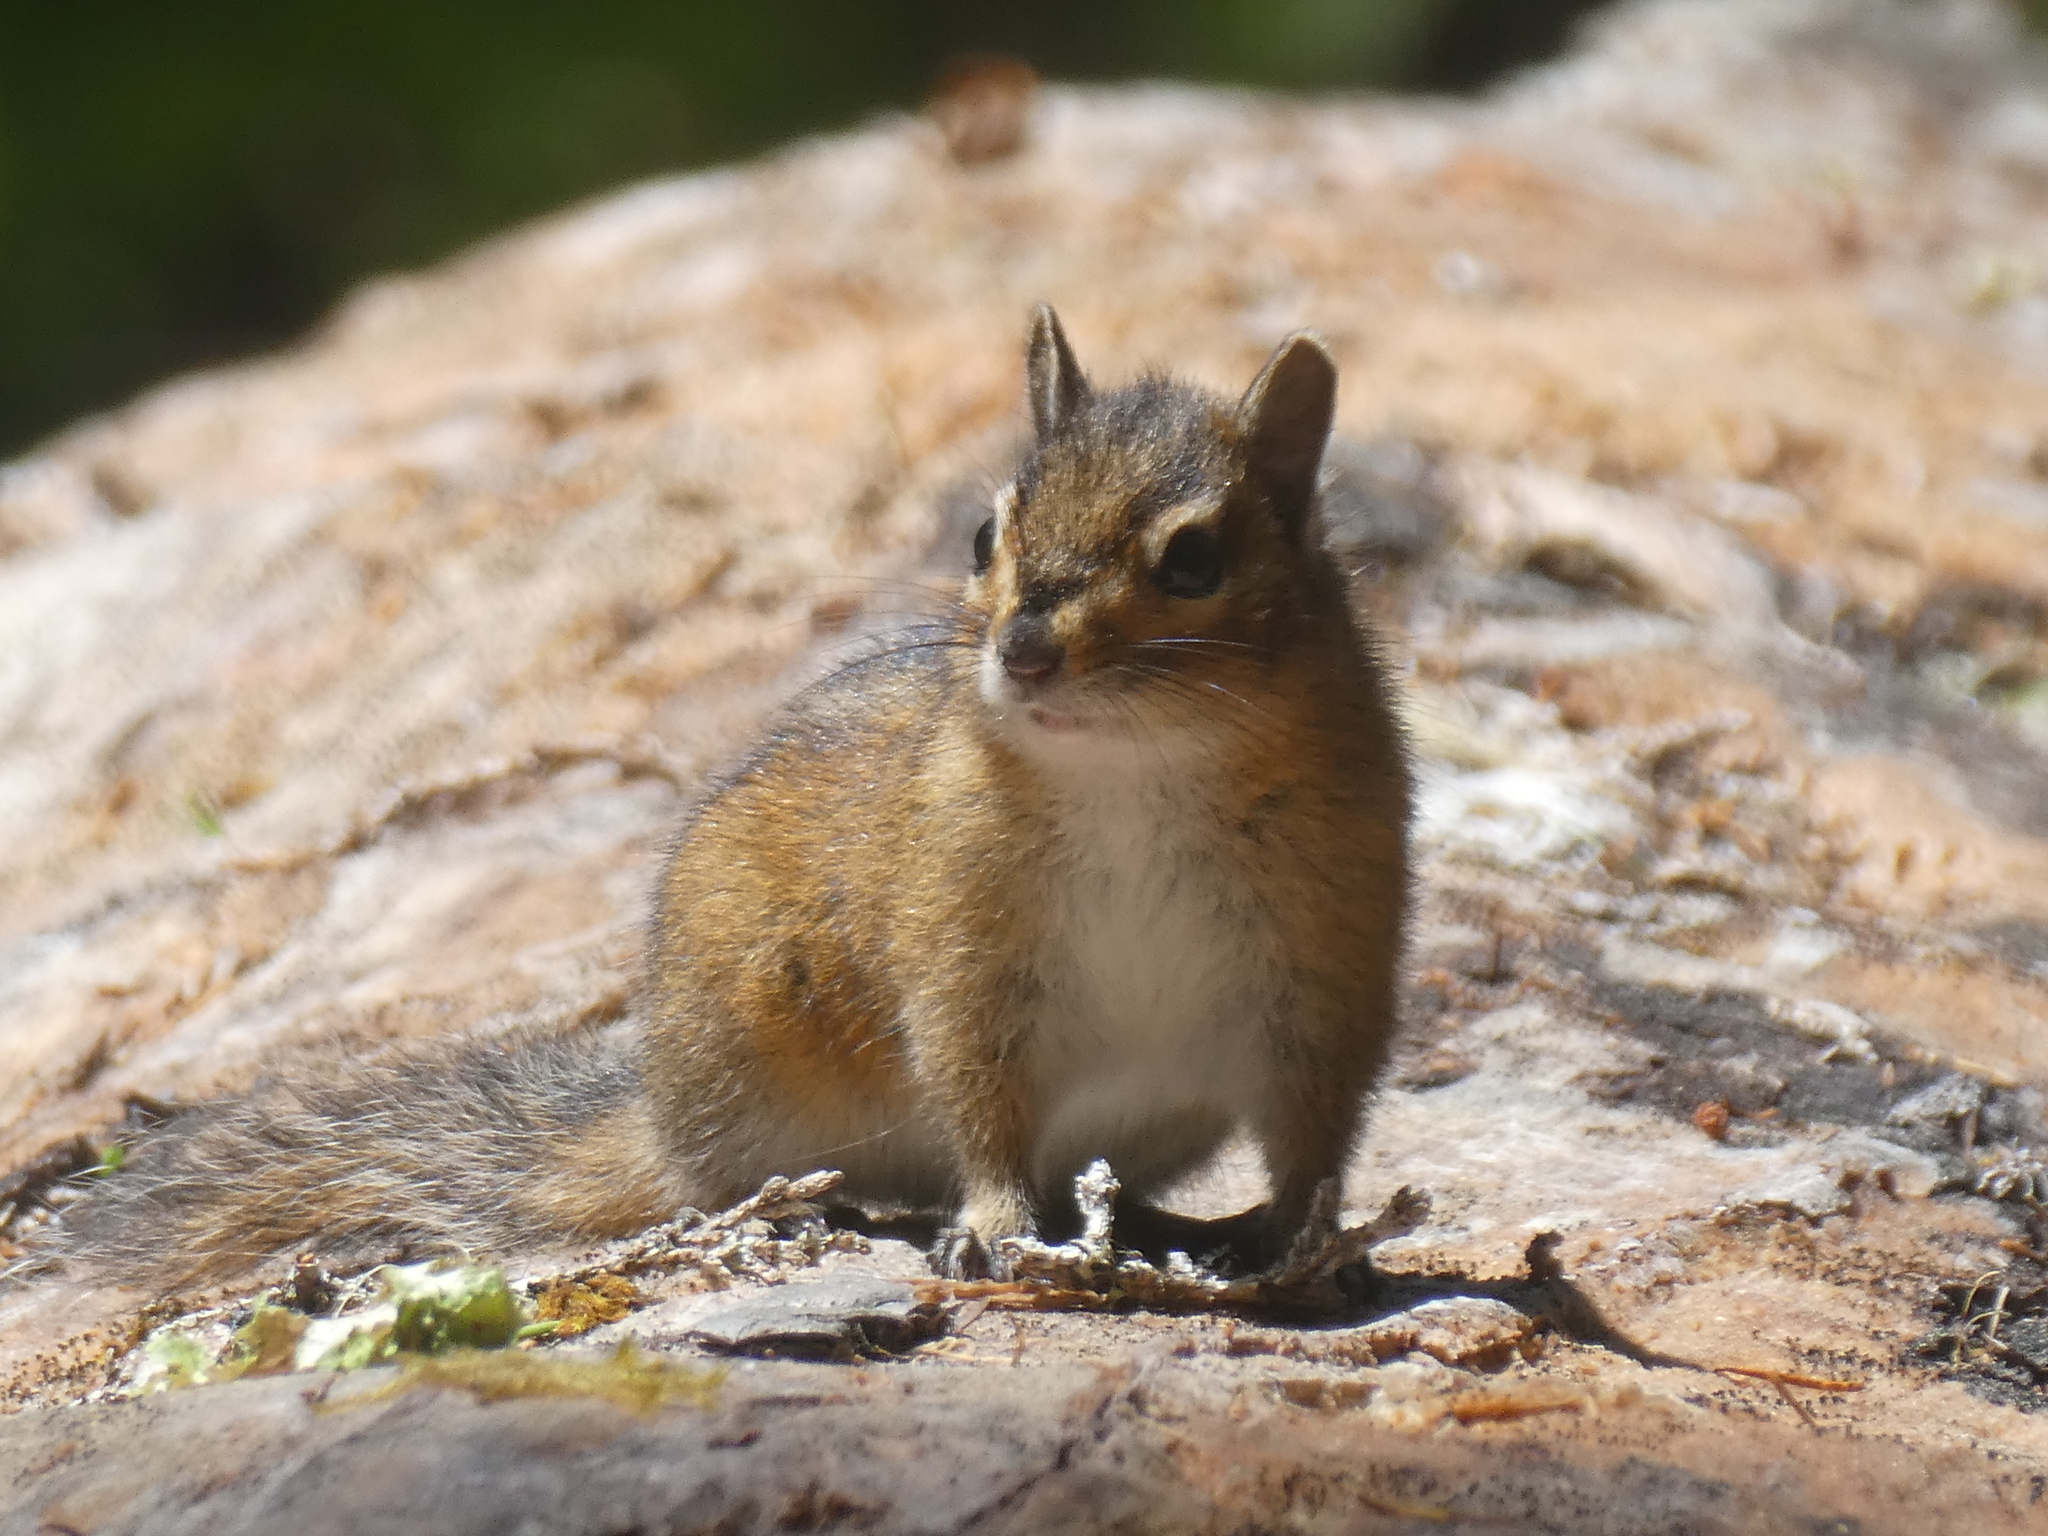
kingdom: Animalia
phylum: Chordata
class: Mammalia
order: Rodentia
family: Sciuridae
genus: Tamias
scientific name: Tamias townsendii
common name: Townsend's chipmunk
